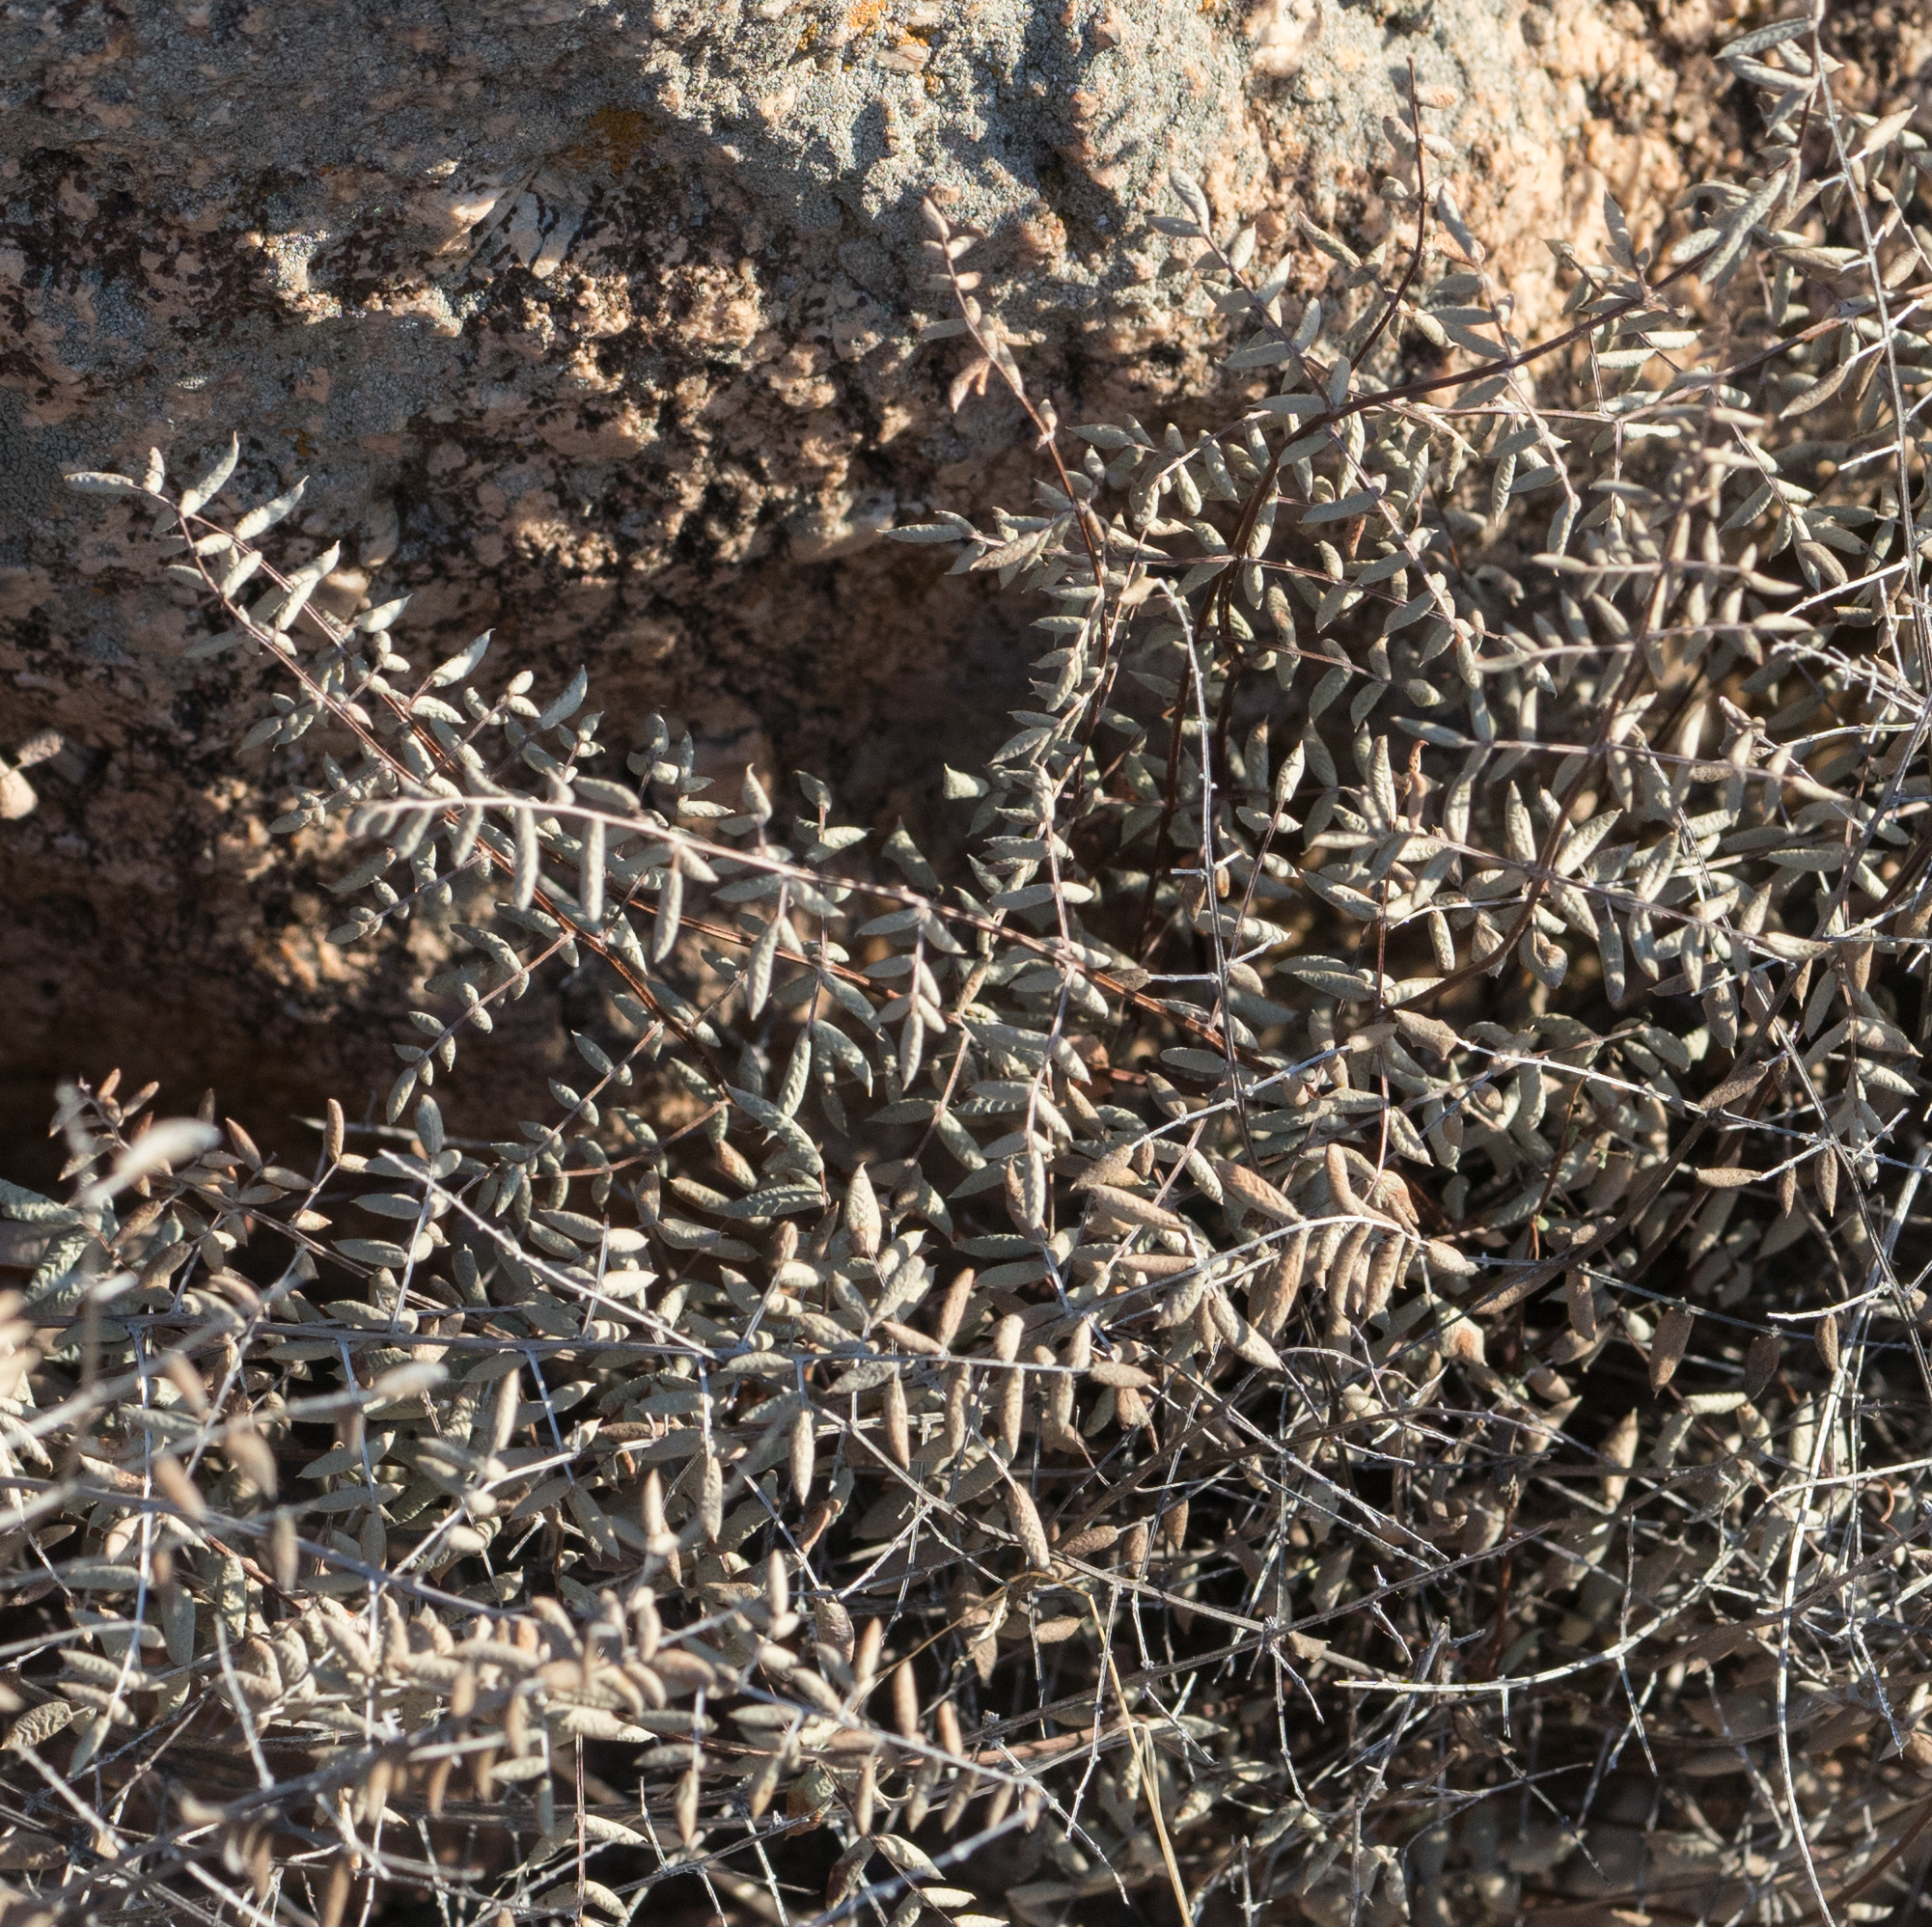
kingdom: Plantae
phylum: Tracheophyta
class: Polypodiopsida
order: Polypodiales
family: Pteridaceae
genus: Pellaea
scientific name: Pellaea truncata
